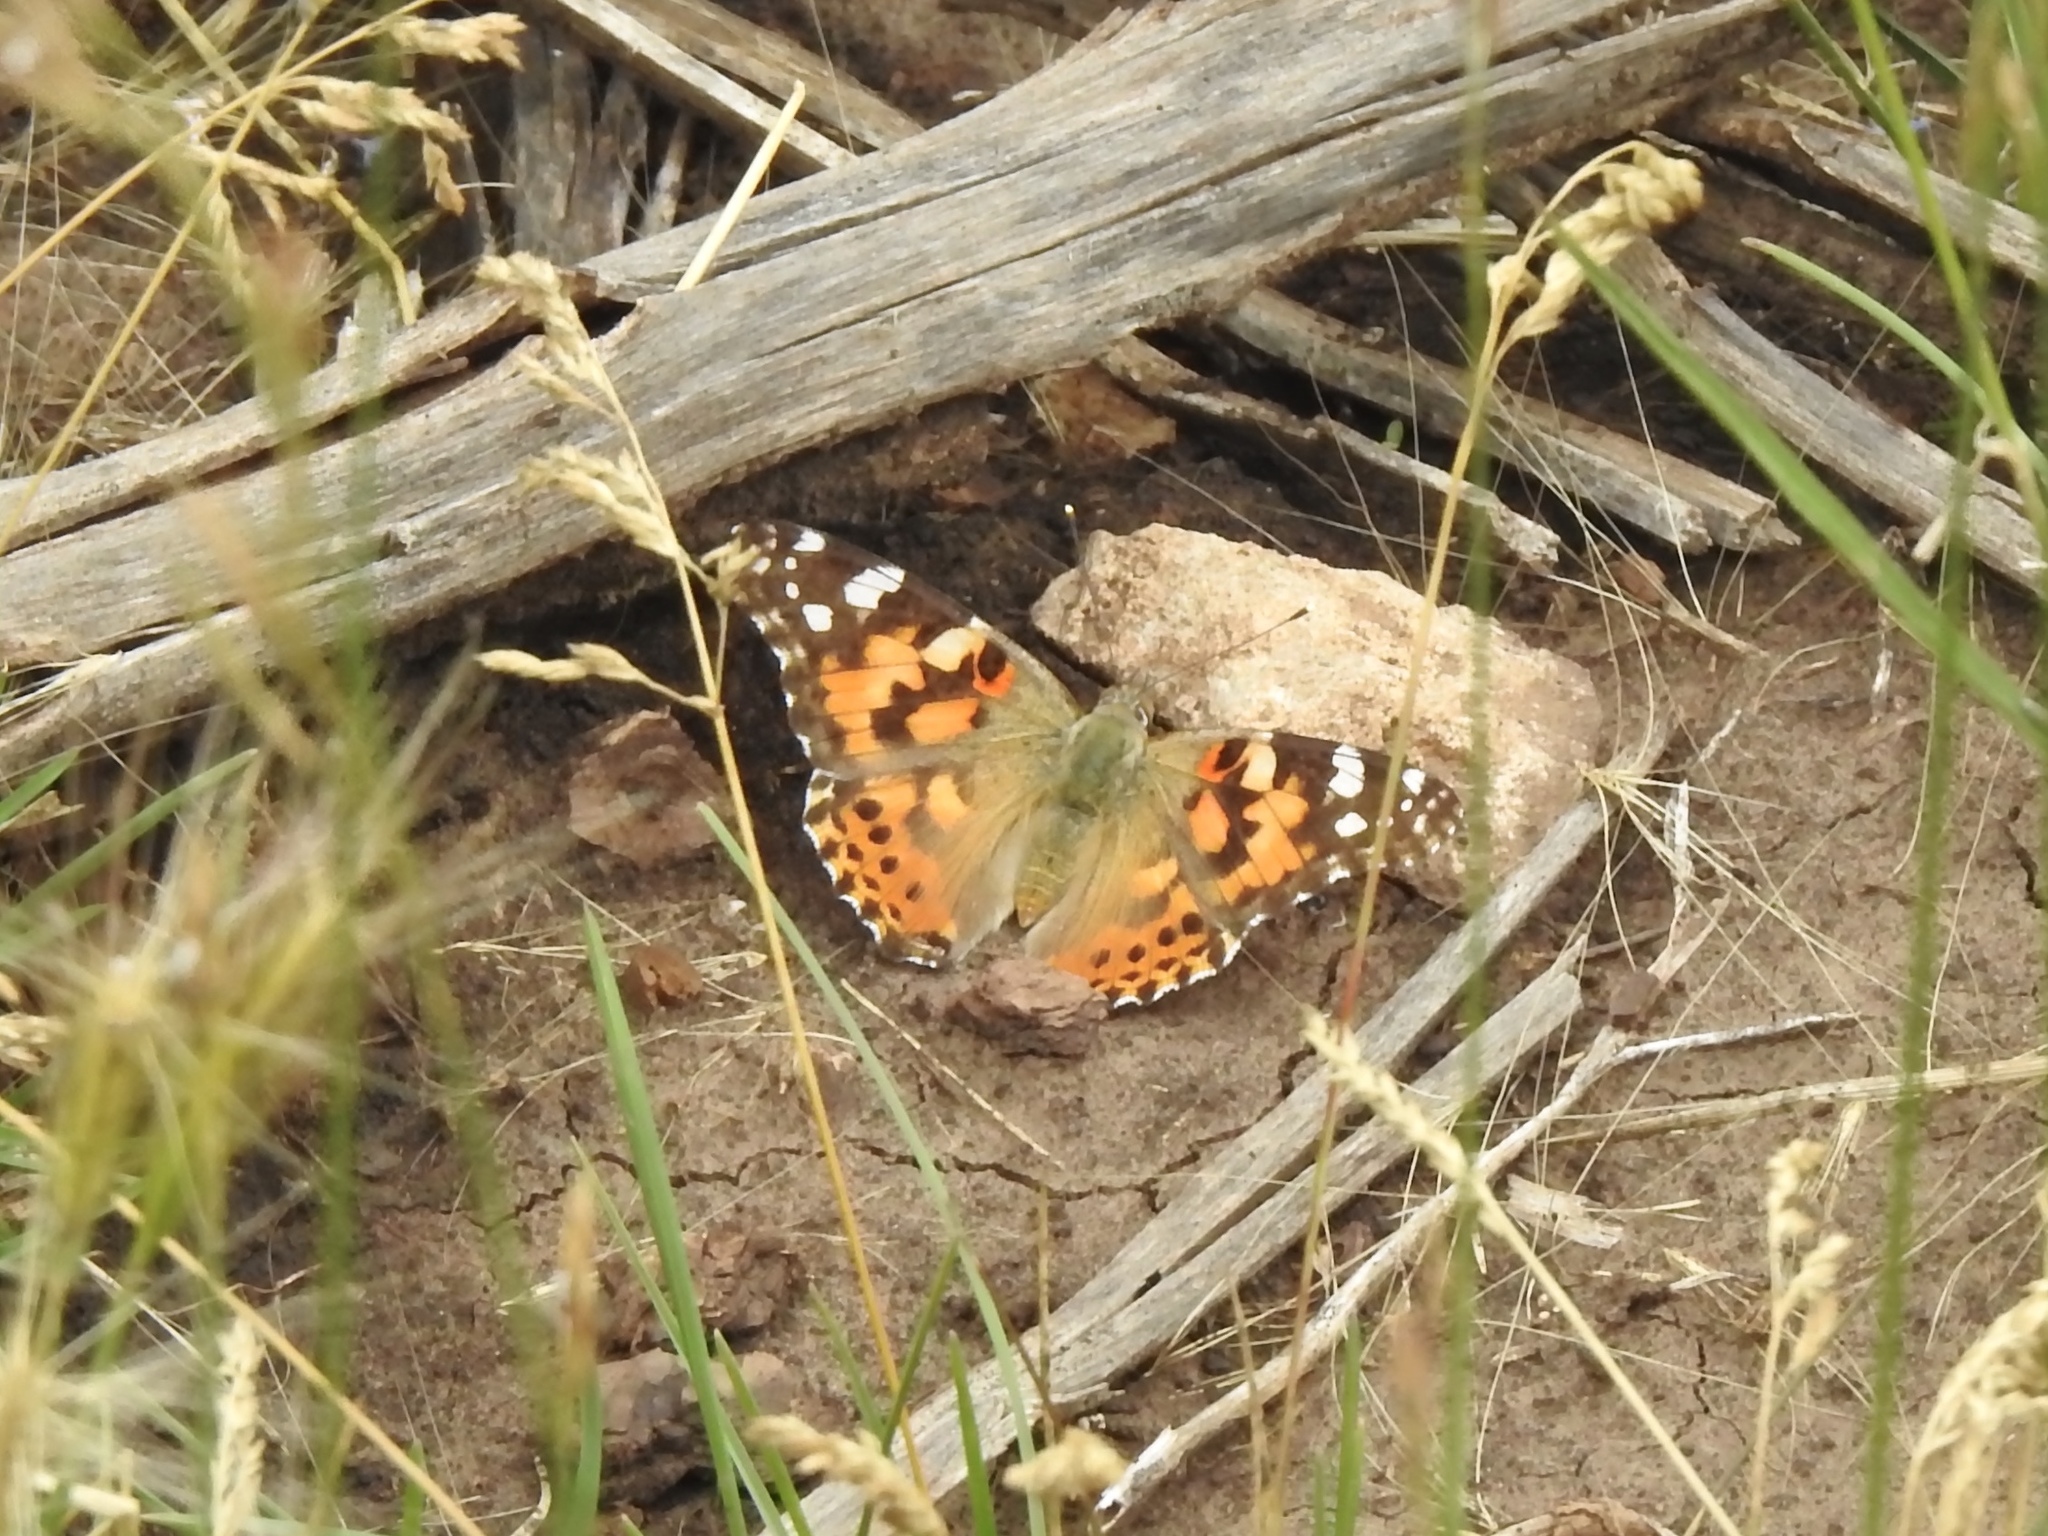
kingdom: Animalia
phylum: Arthropoda
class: Insecta
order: Lepidoptera
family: Nymphalidae
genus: Vanessa
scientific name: Vanessa cardui
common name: Painted lady
